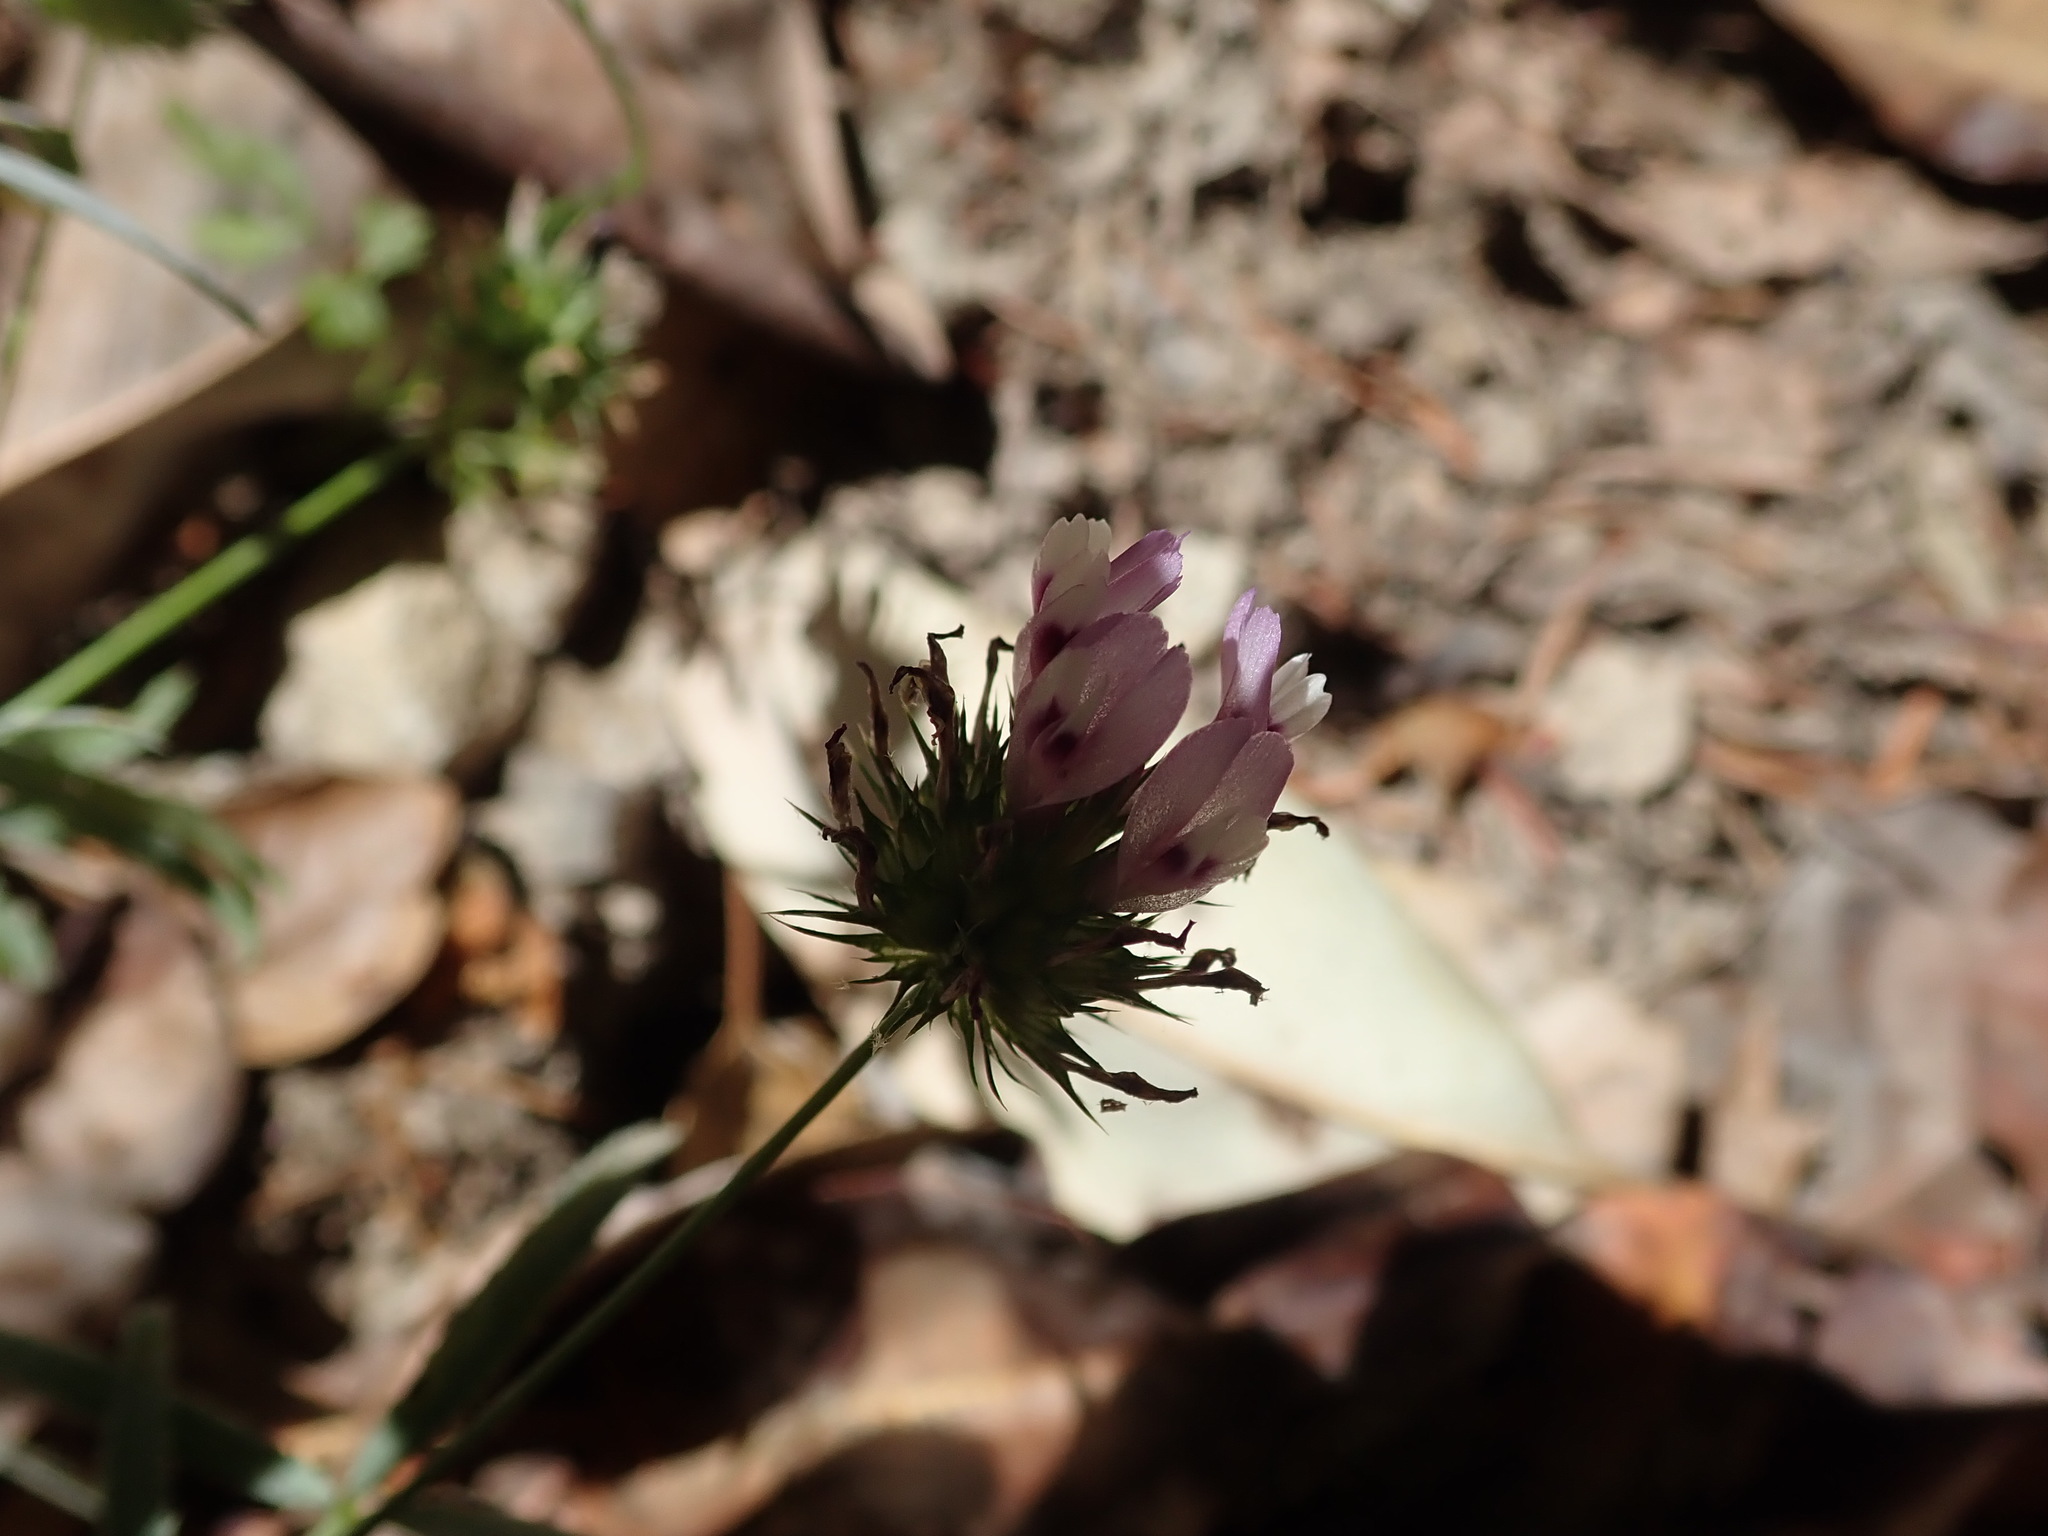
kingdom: Plantae
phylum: Tracheophyta
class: Magnoliopsida
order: Fabales
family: Fabaceae
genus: Trifolium
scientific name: Trifolium willdenovii
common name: Tomcat clover
